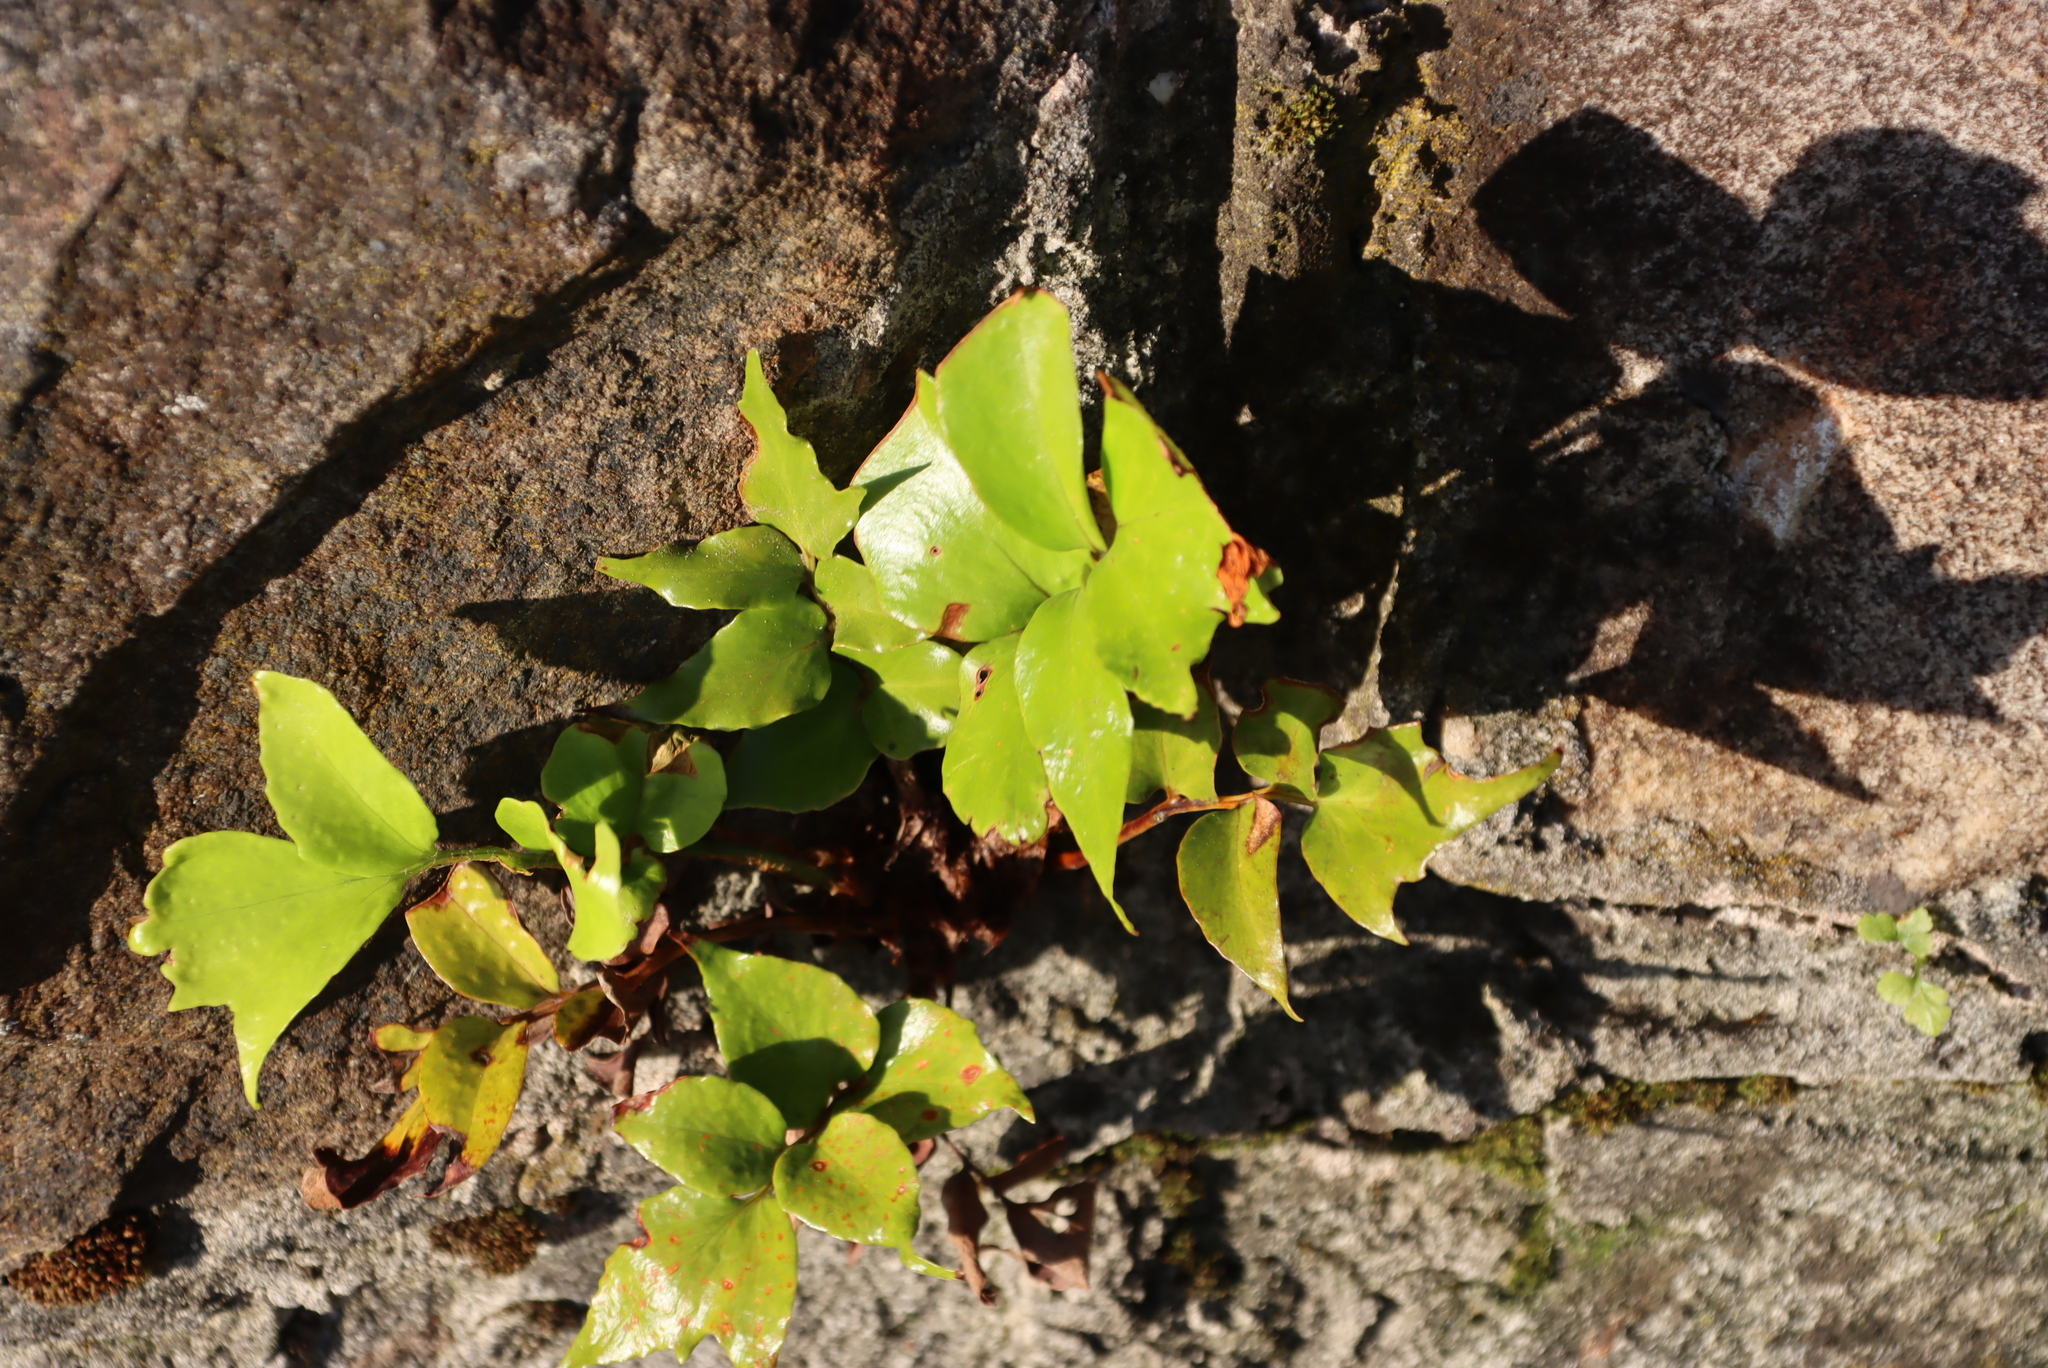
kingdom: Plantae
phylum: Tracheophyta
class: Polypodiopsida
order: Polypodiales
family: Dryopteridaceae
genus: Cyrtomium
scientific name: Cyrtomium falcatum
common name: House holly-fern
